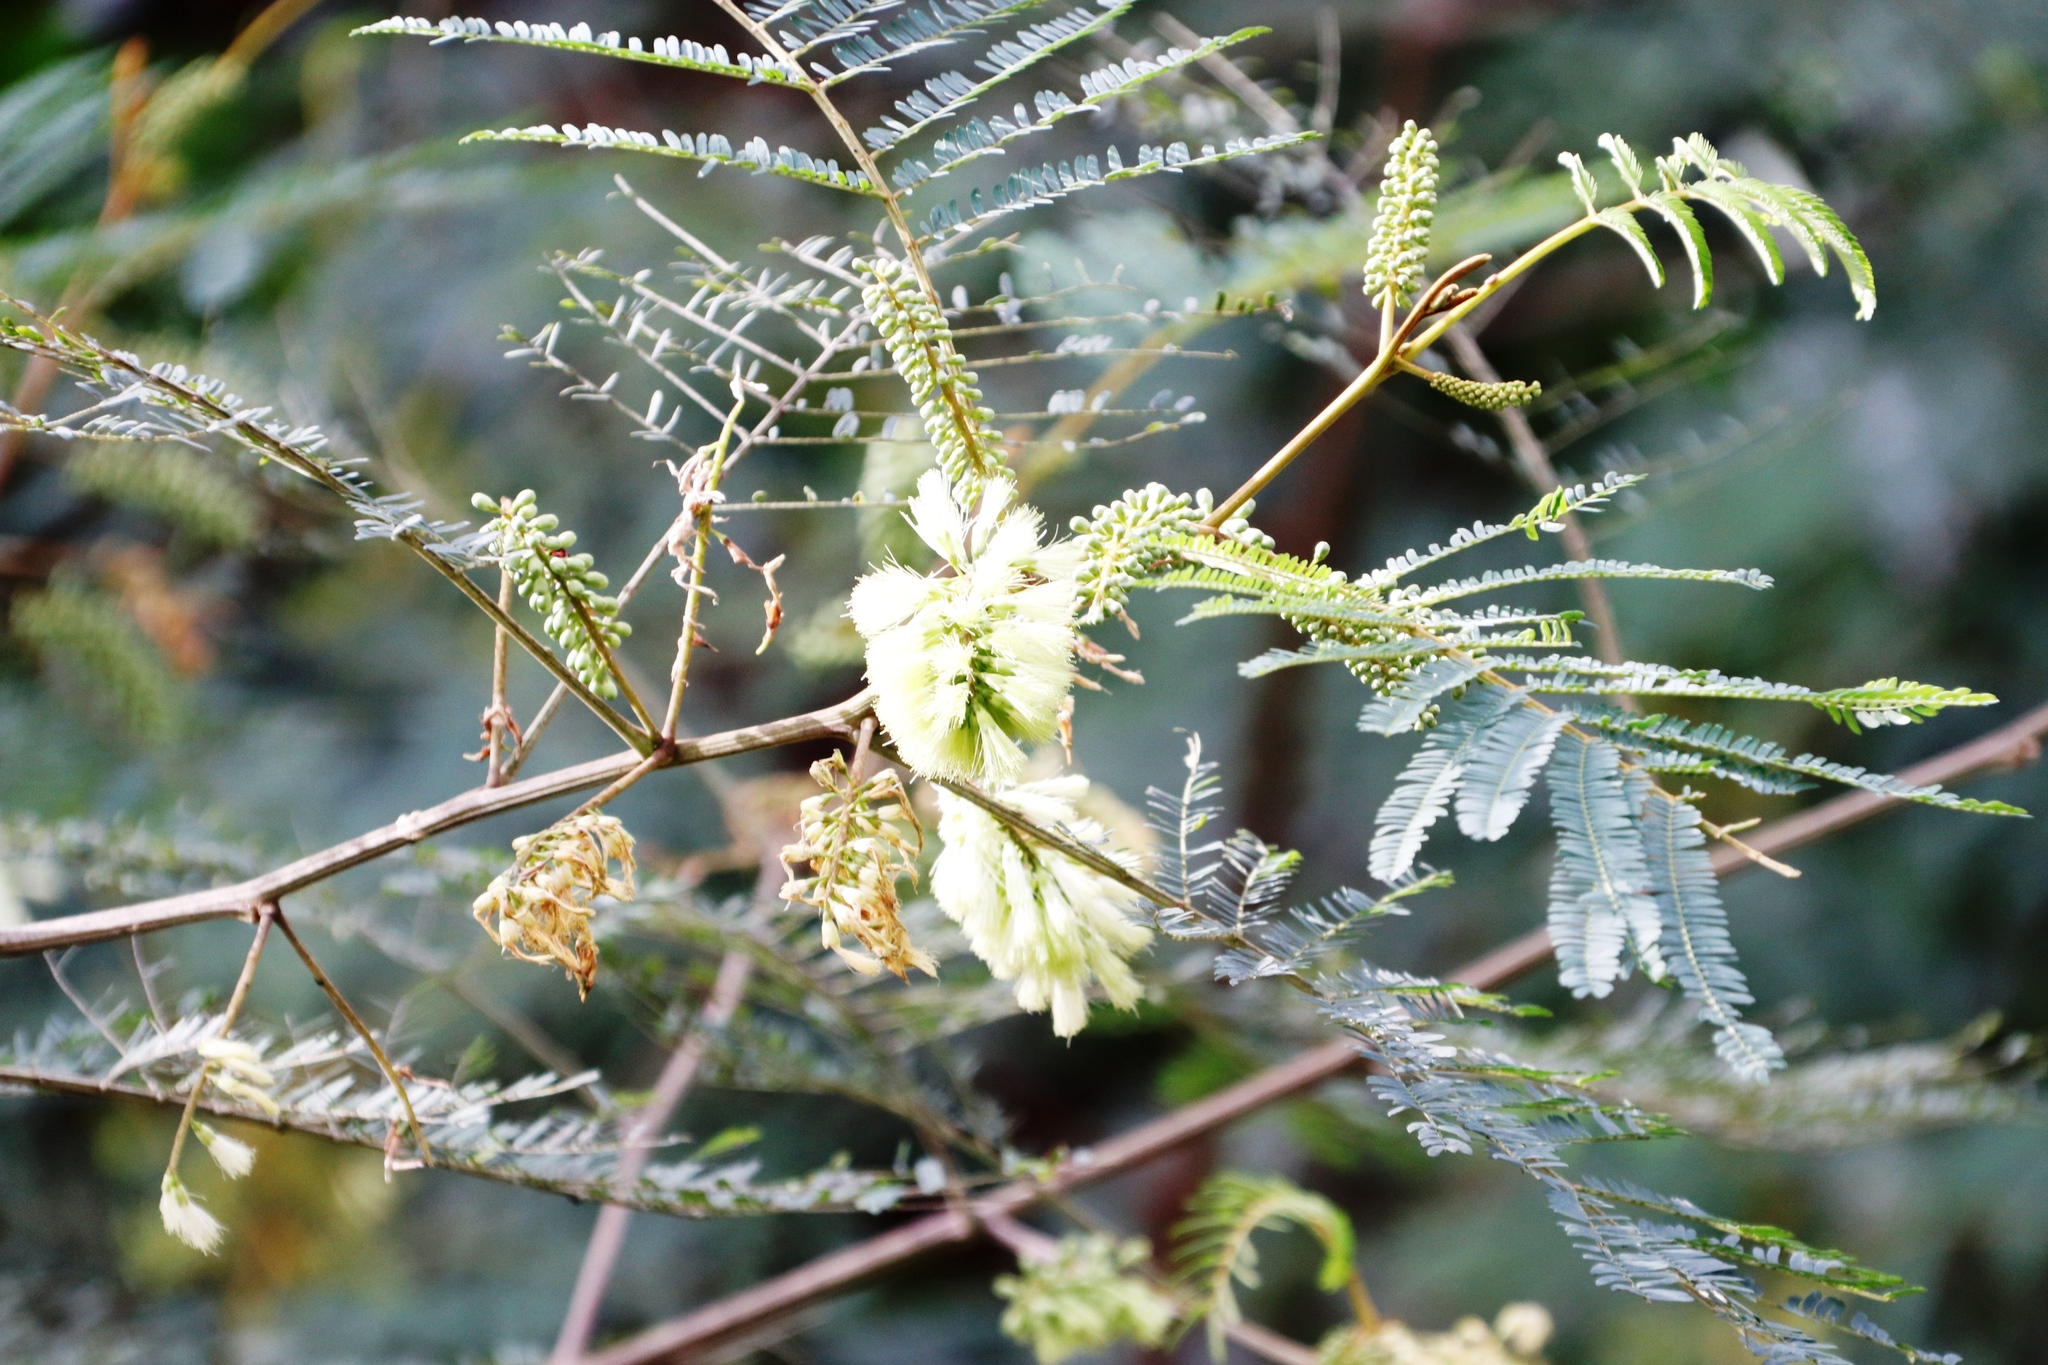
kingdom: Plantae
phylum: Tracheophyta
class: Magnoliopsida
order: Fabales
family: Fabaceae
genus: Paraserianthes
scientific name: Paraserianthes lophantha
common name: Plume albizia
